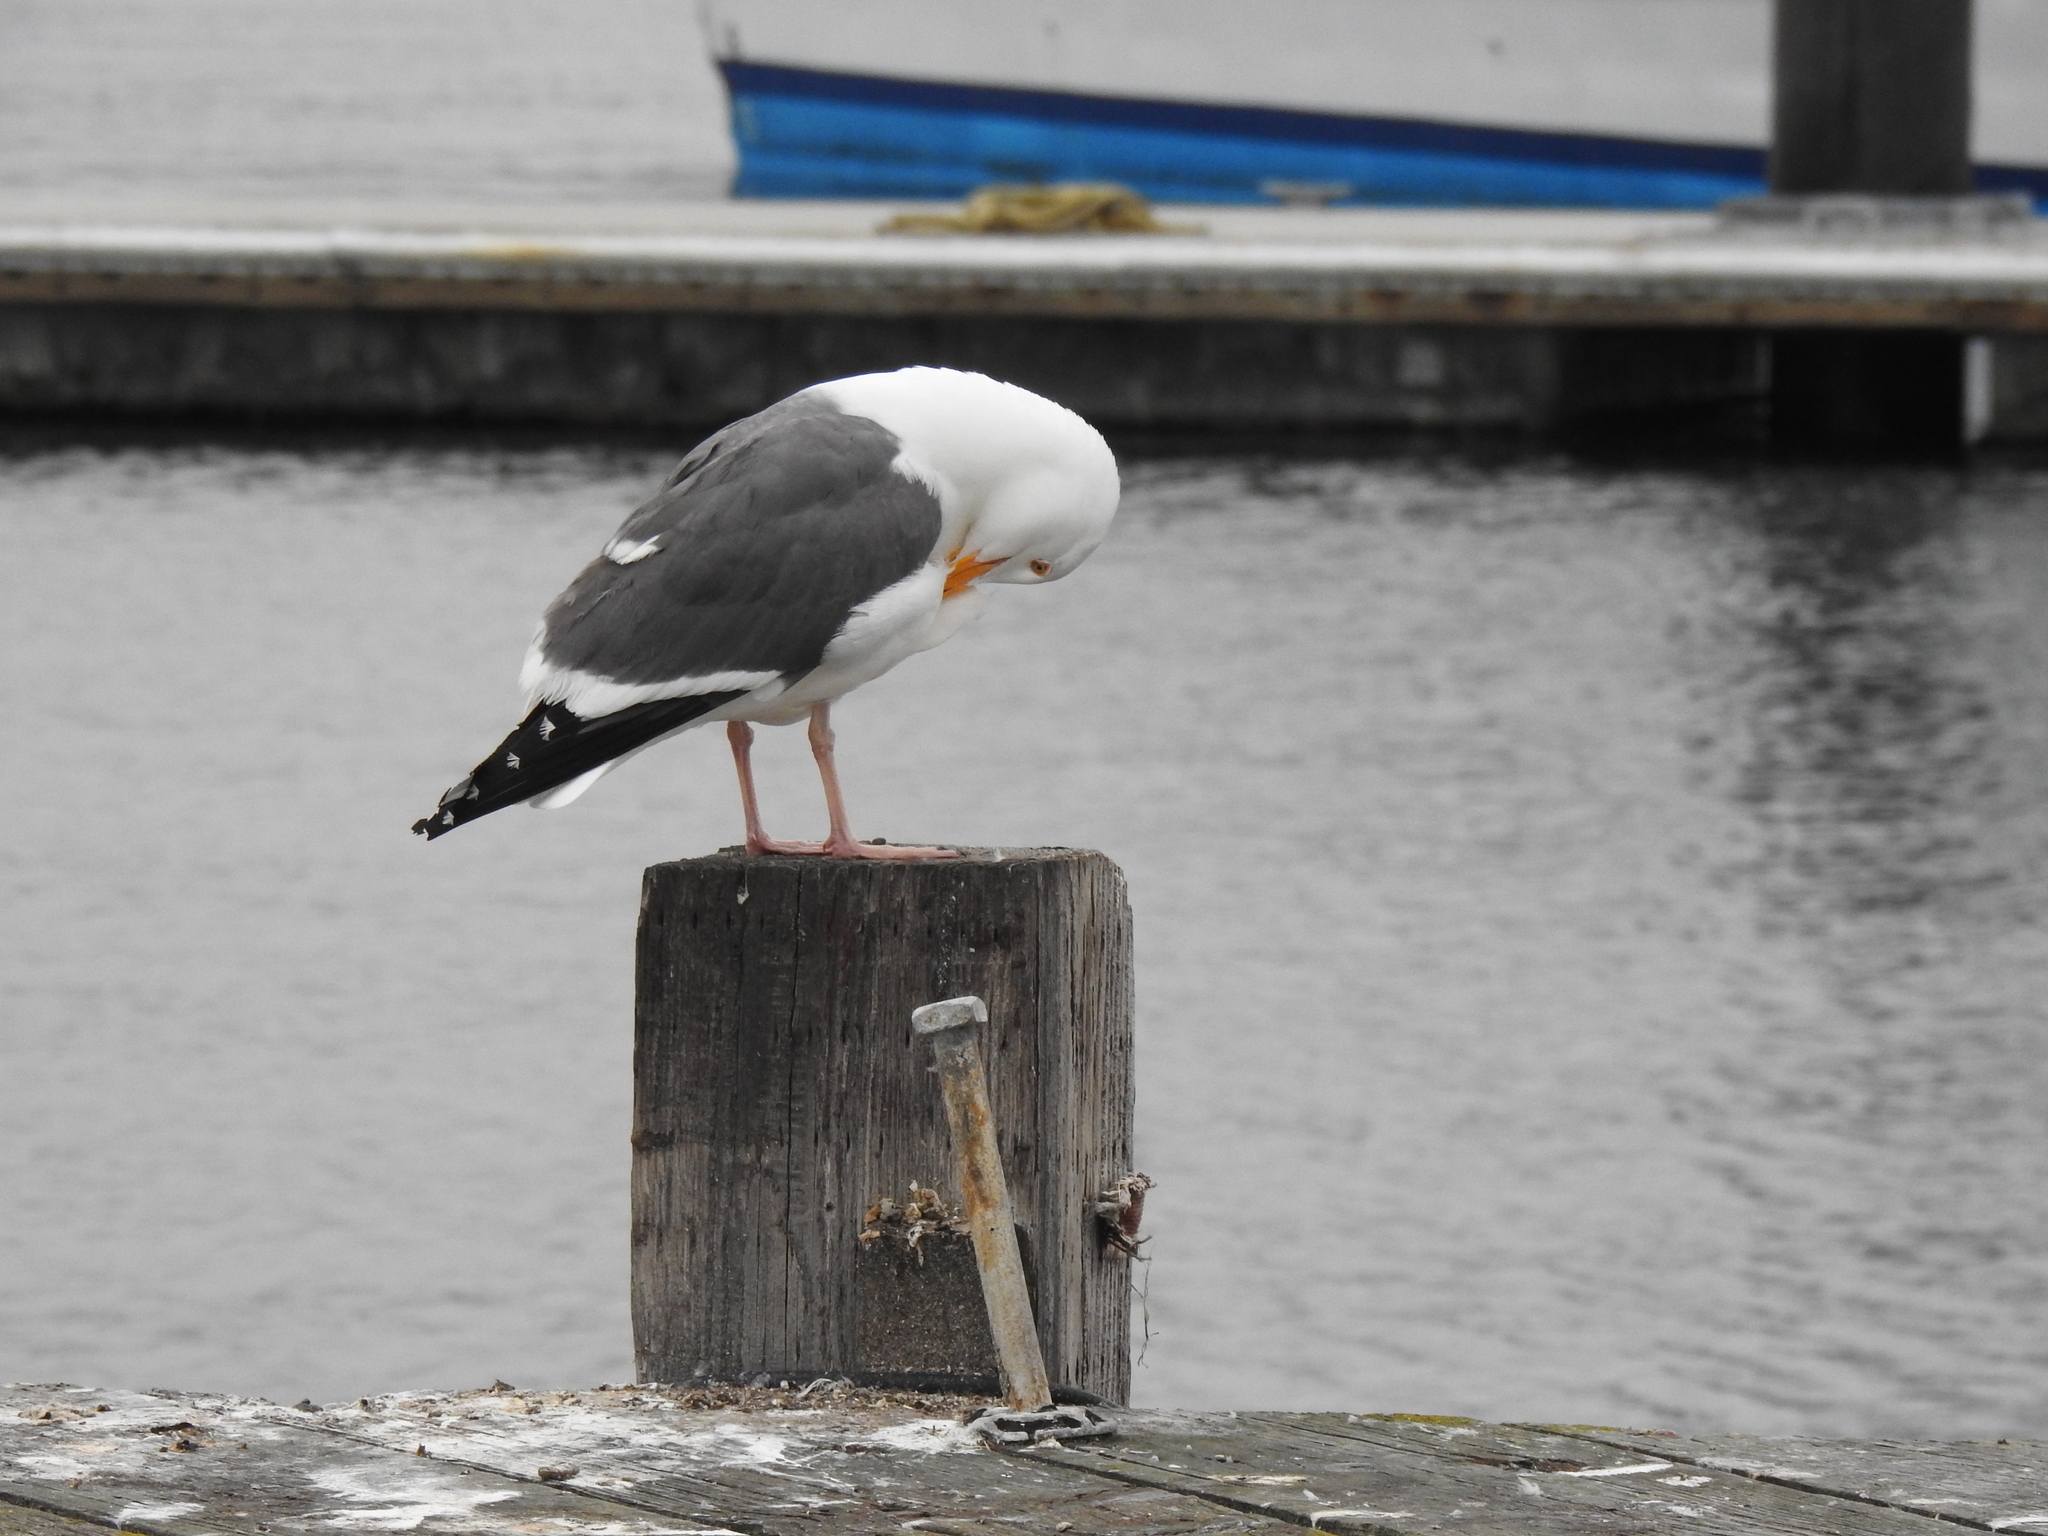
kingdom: Animalia
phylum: Chordata
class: Aves
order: Charadriiformes
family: Laridae
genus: Larus
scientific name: Larus occidentalis
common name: Western gull
